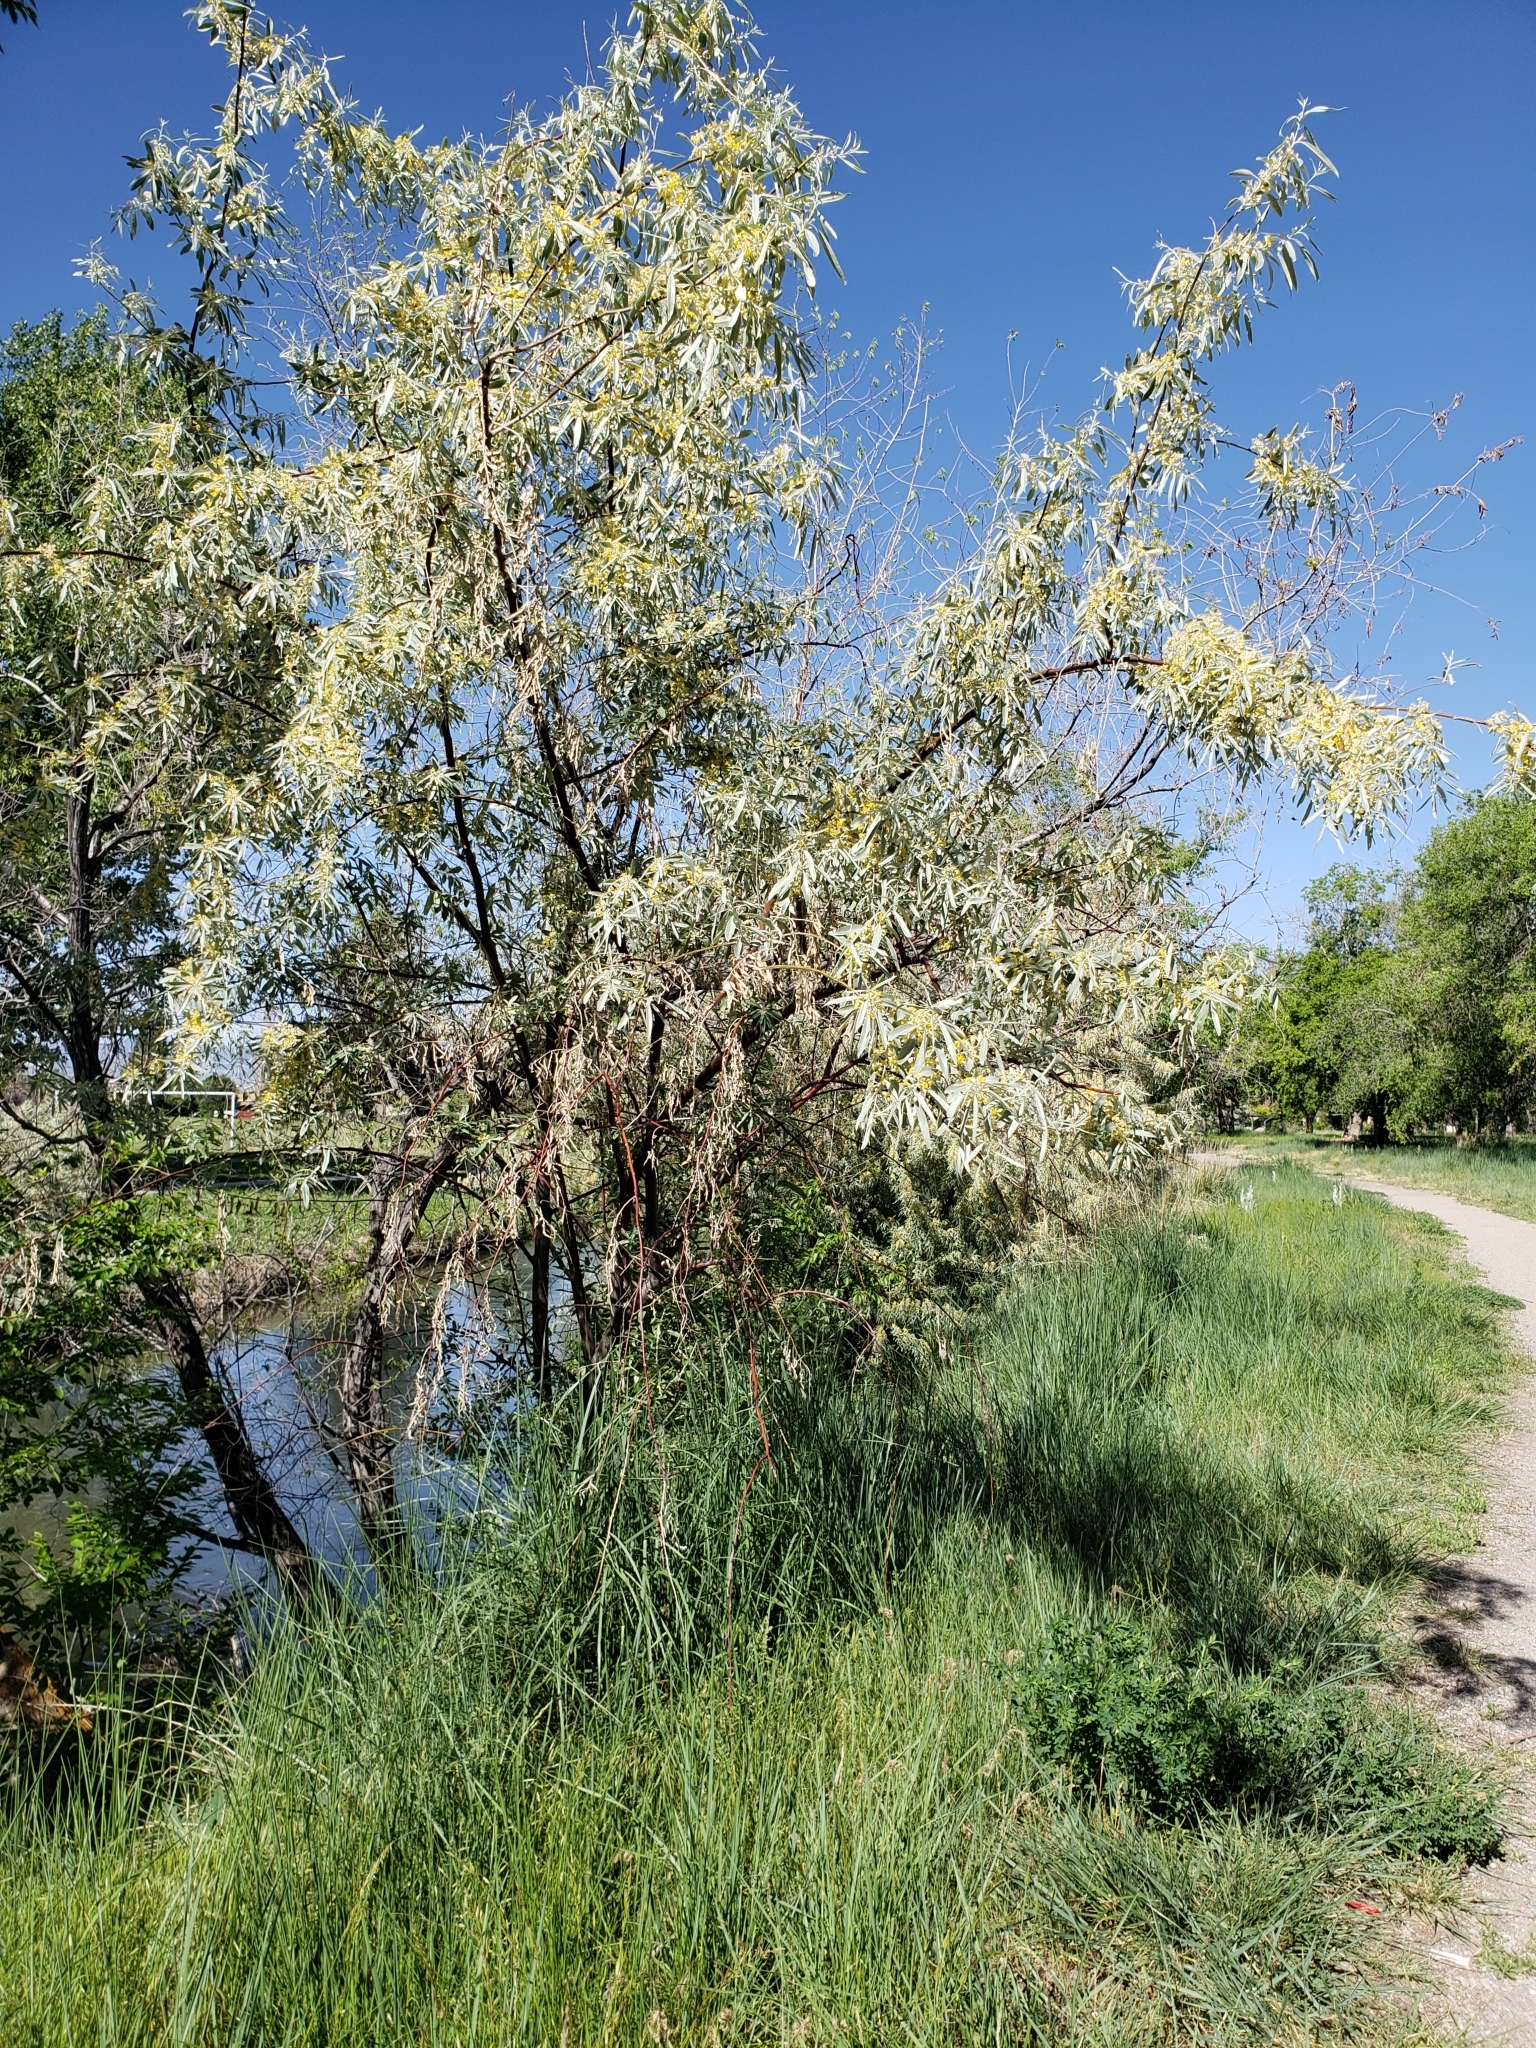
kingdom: Plantae
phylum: Tracheophyta
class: Magnoliopsida
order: Rosales
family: Elaeagnaceae
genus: Elaeagnus
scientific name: Elaeagnus angustifolia
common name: Russian olive
